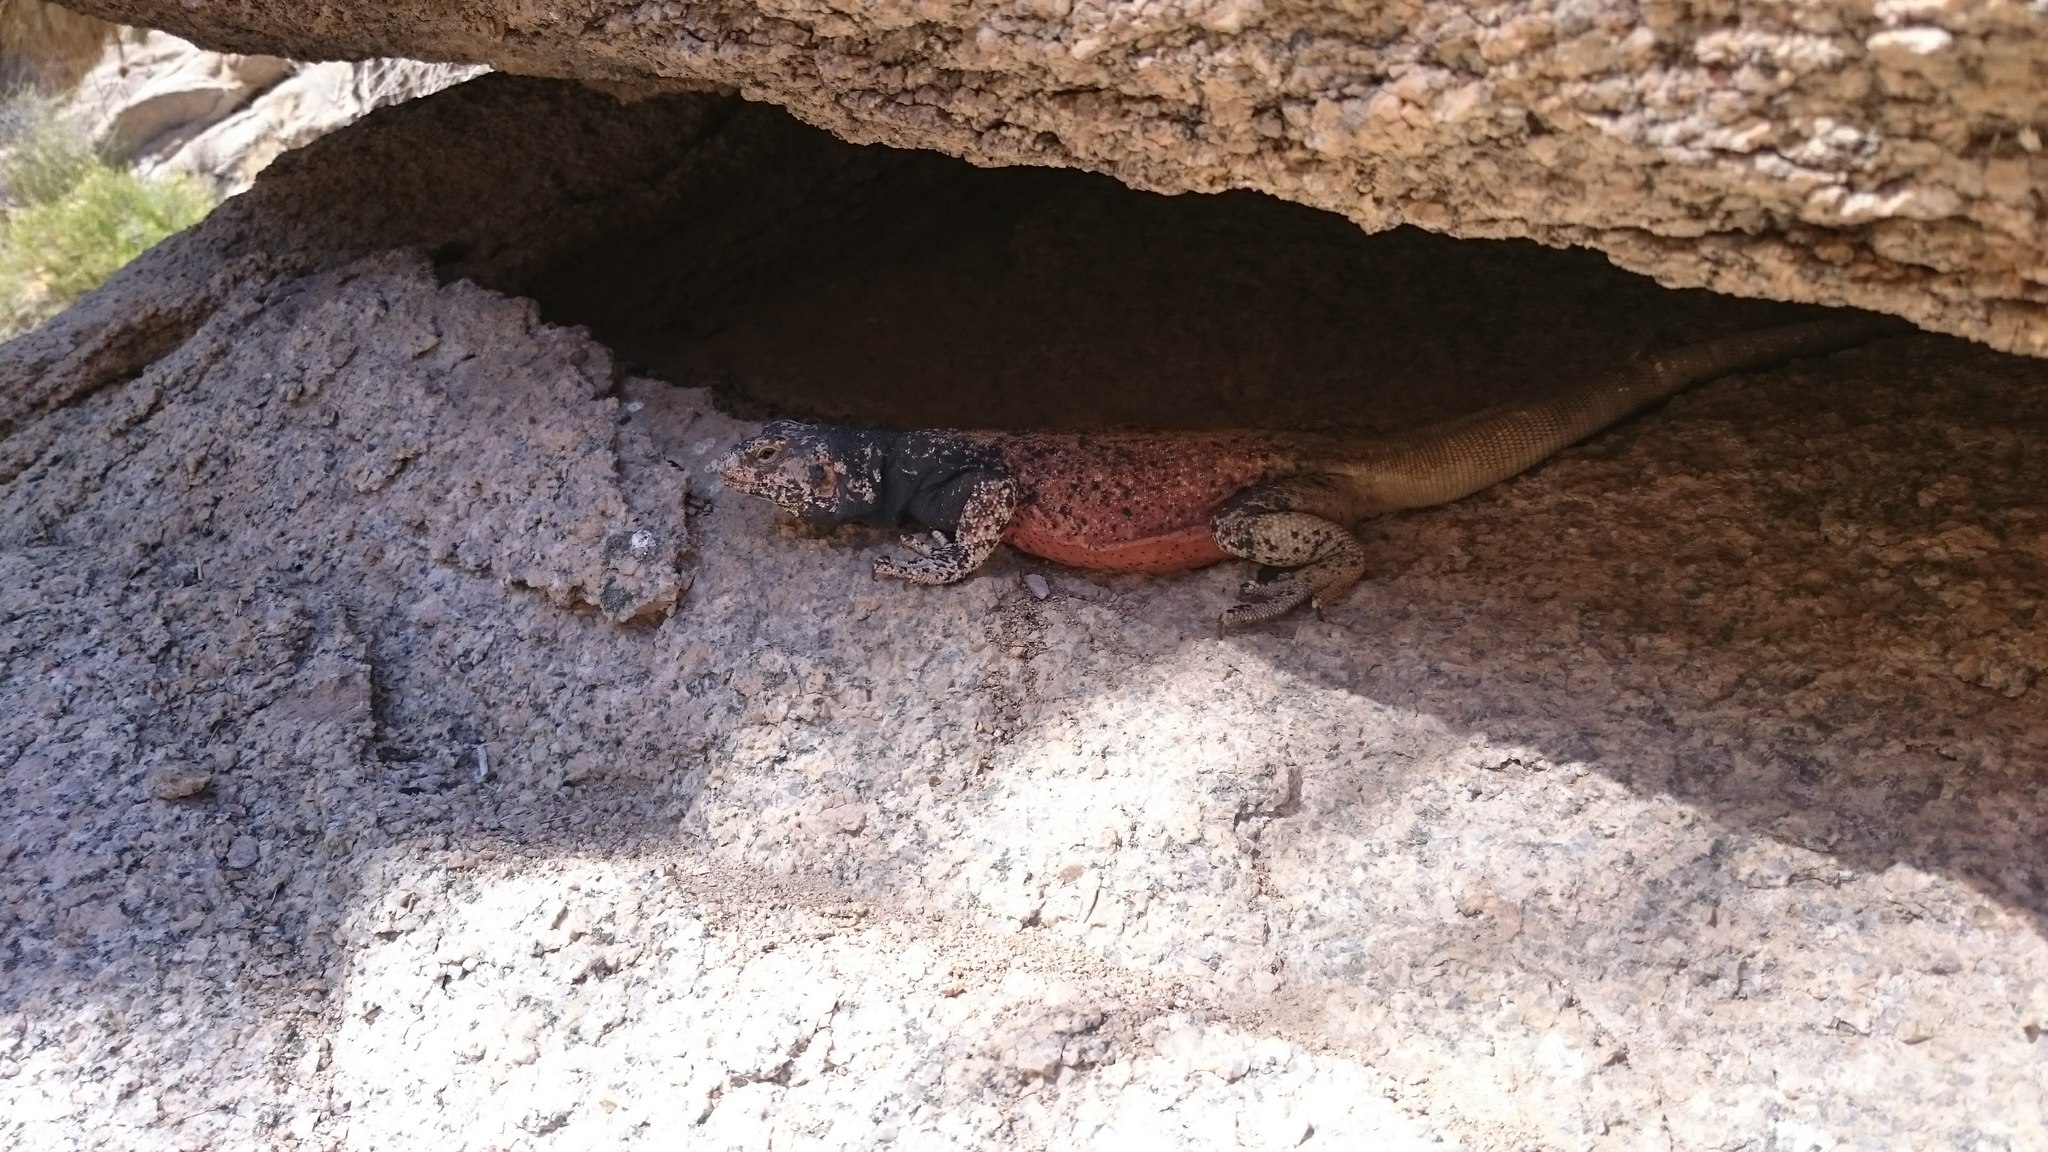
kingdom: Animalia
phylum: Chordata
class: Squamata
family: Iguanidae
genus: Sauromalus
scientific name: Sauromalus ater
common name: Northern chuckwalla
